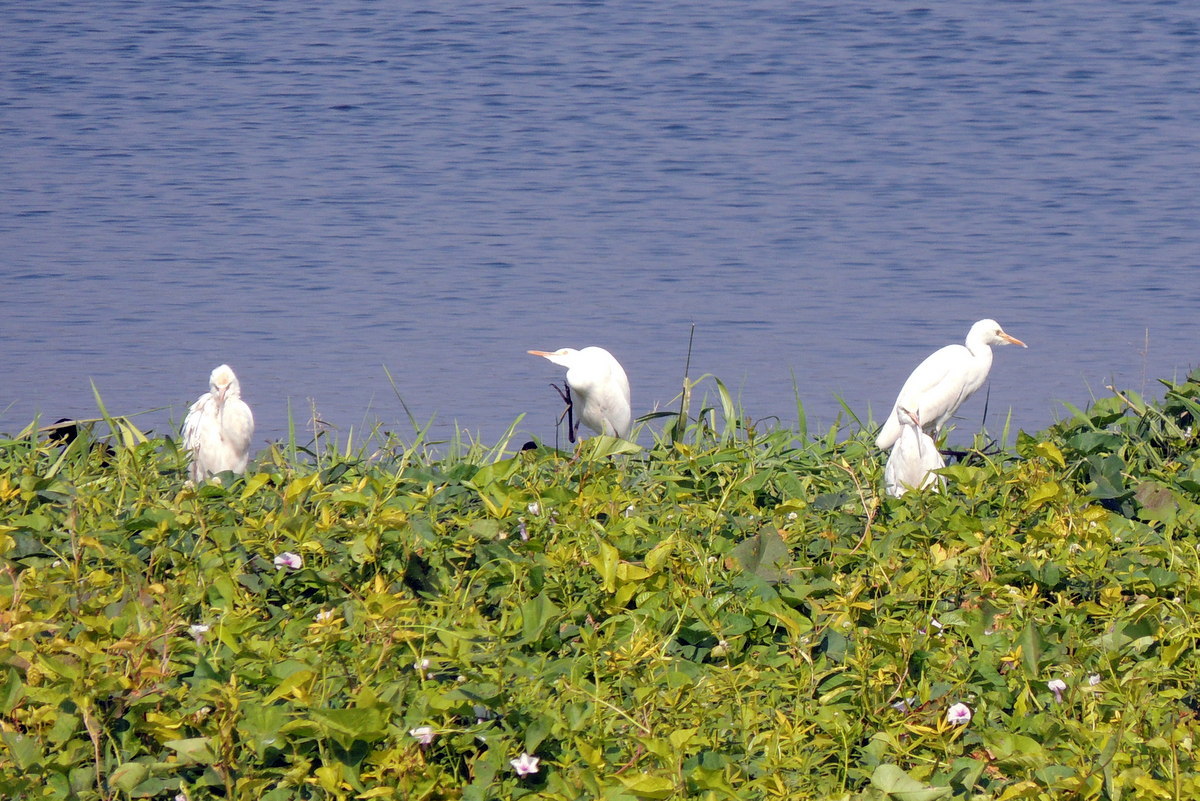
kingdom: Animalia
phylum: Chordata
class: Aves
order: Pelecaniformes
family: Ardeidae
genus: Bubulcus
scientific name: Bubulcus coromandus
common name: Eastern cattle egret
